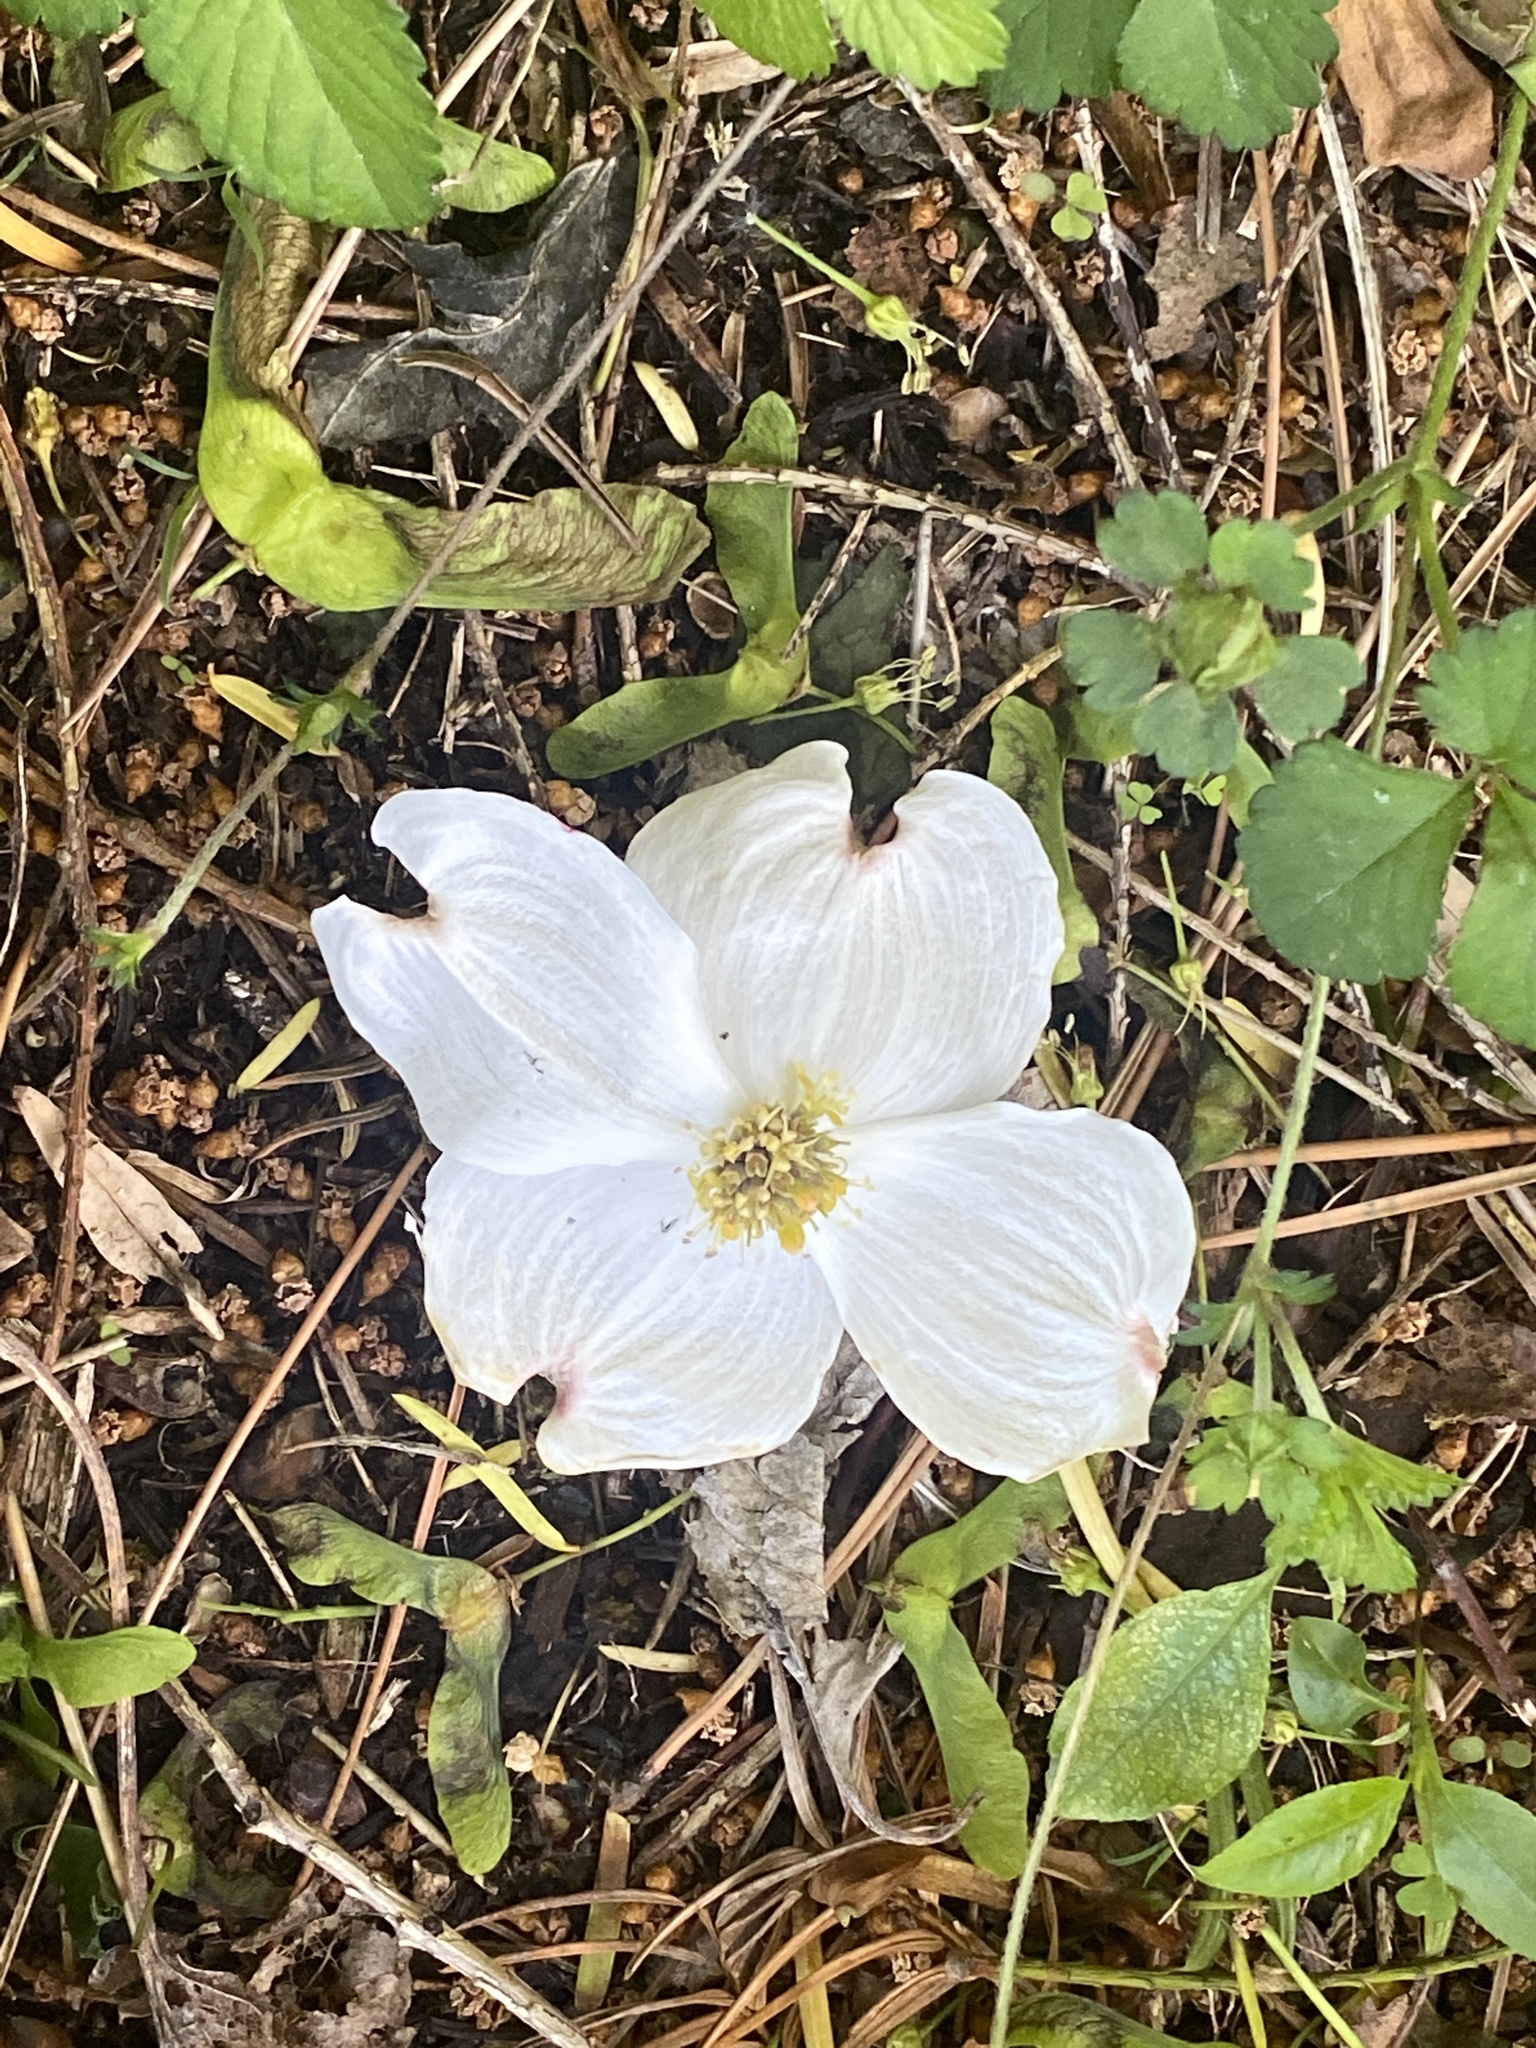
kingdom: Plantae
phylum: Tracheophyta
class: Magnoliopsida
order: Cornales
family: Cornaceae
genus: Cornus
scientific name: Cornus florida
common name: Flowering dogwood
